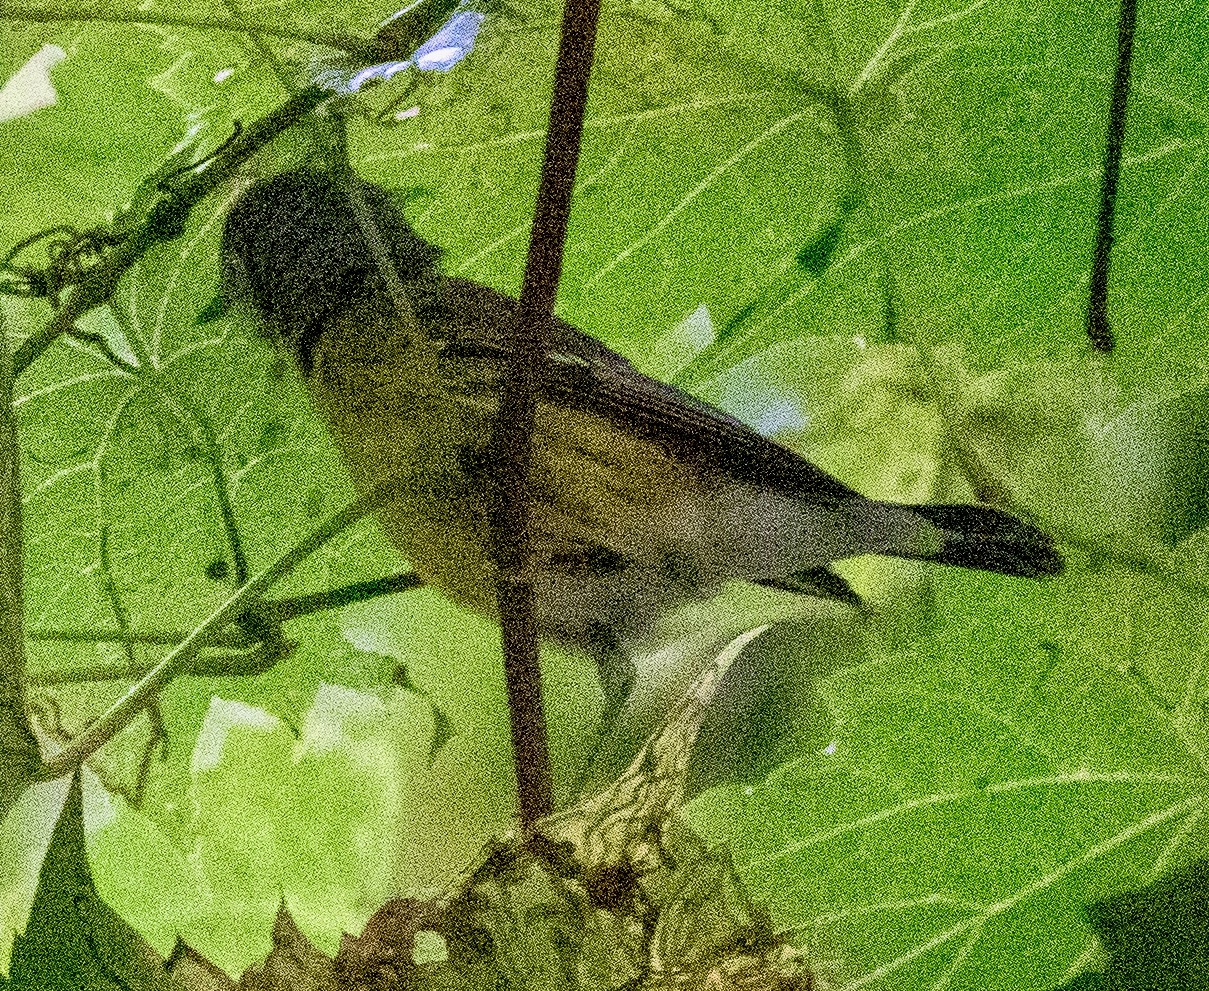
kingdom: Animalia
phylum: Chordata
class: Aves
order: Passeriformes
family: Parulidae
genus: Setophaga
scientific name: Setophaga magnolia
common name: Magnolia warbler
